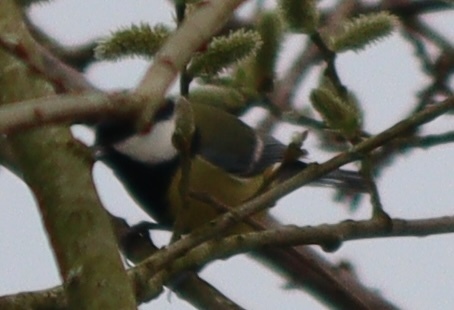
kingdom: Animalia
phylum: Chordata
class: Aves
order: Passeriformes
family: Paridae
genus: Parus
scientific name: Parus major
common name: Great tit
